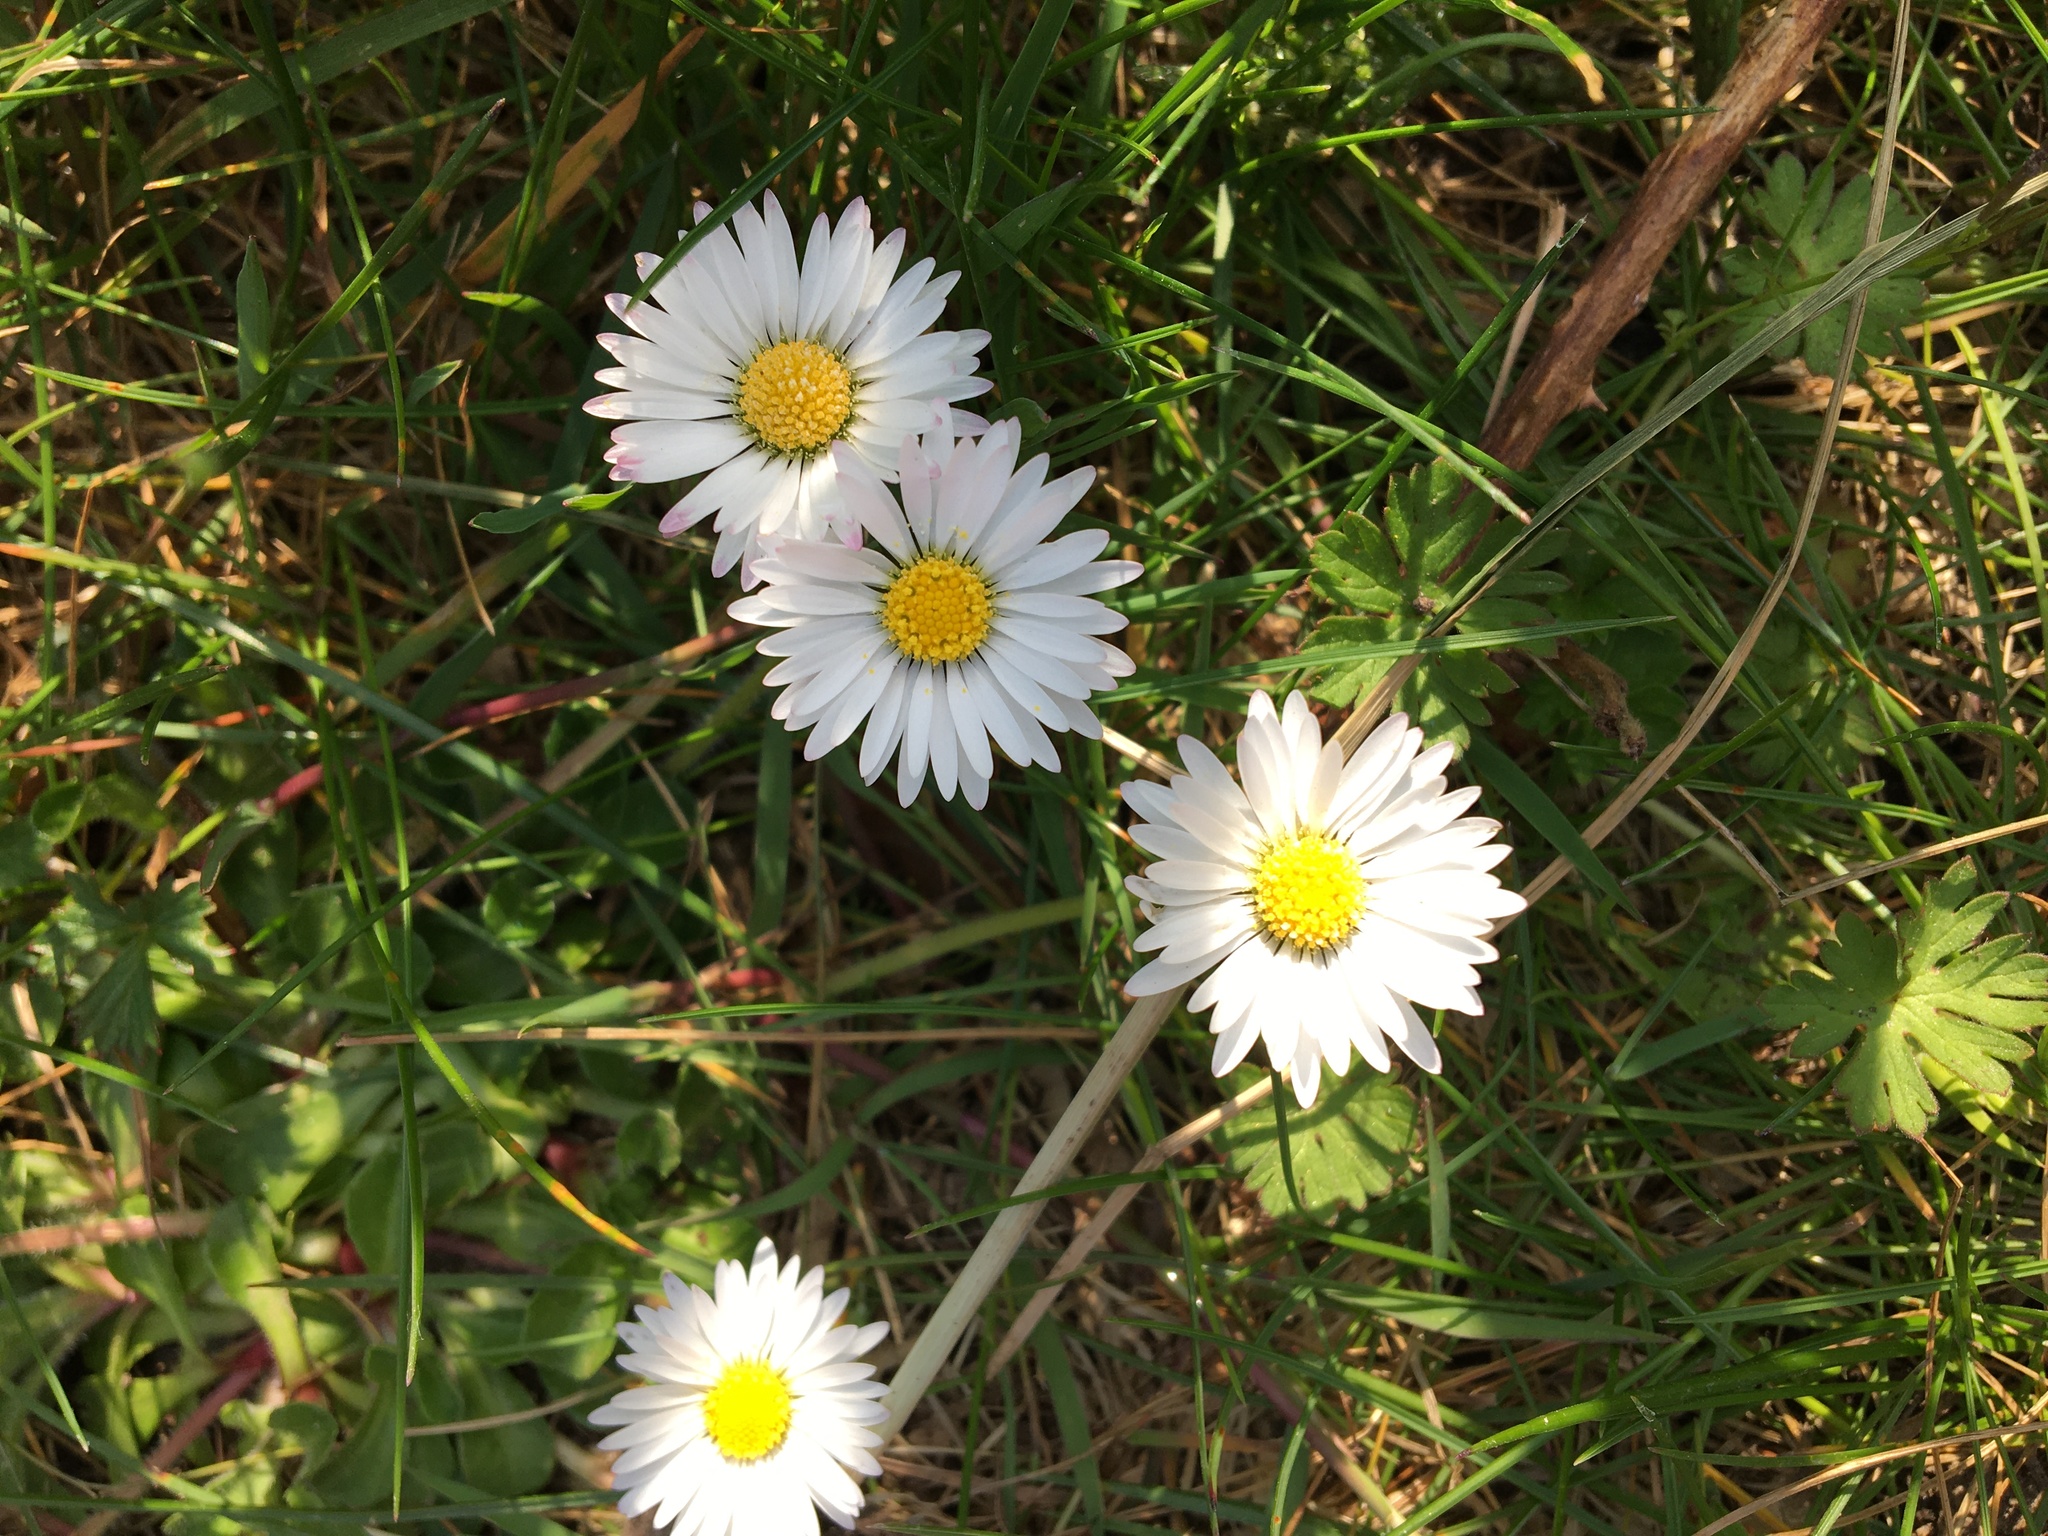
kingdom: Plantae
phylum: Tracheophyta
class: Magnoliopsida
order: Asterales
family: Asteraceae
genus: Bellis
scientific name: Bellis perennis
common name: Lawndaisy
